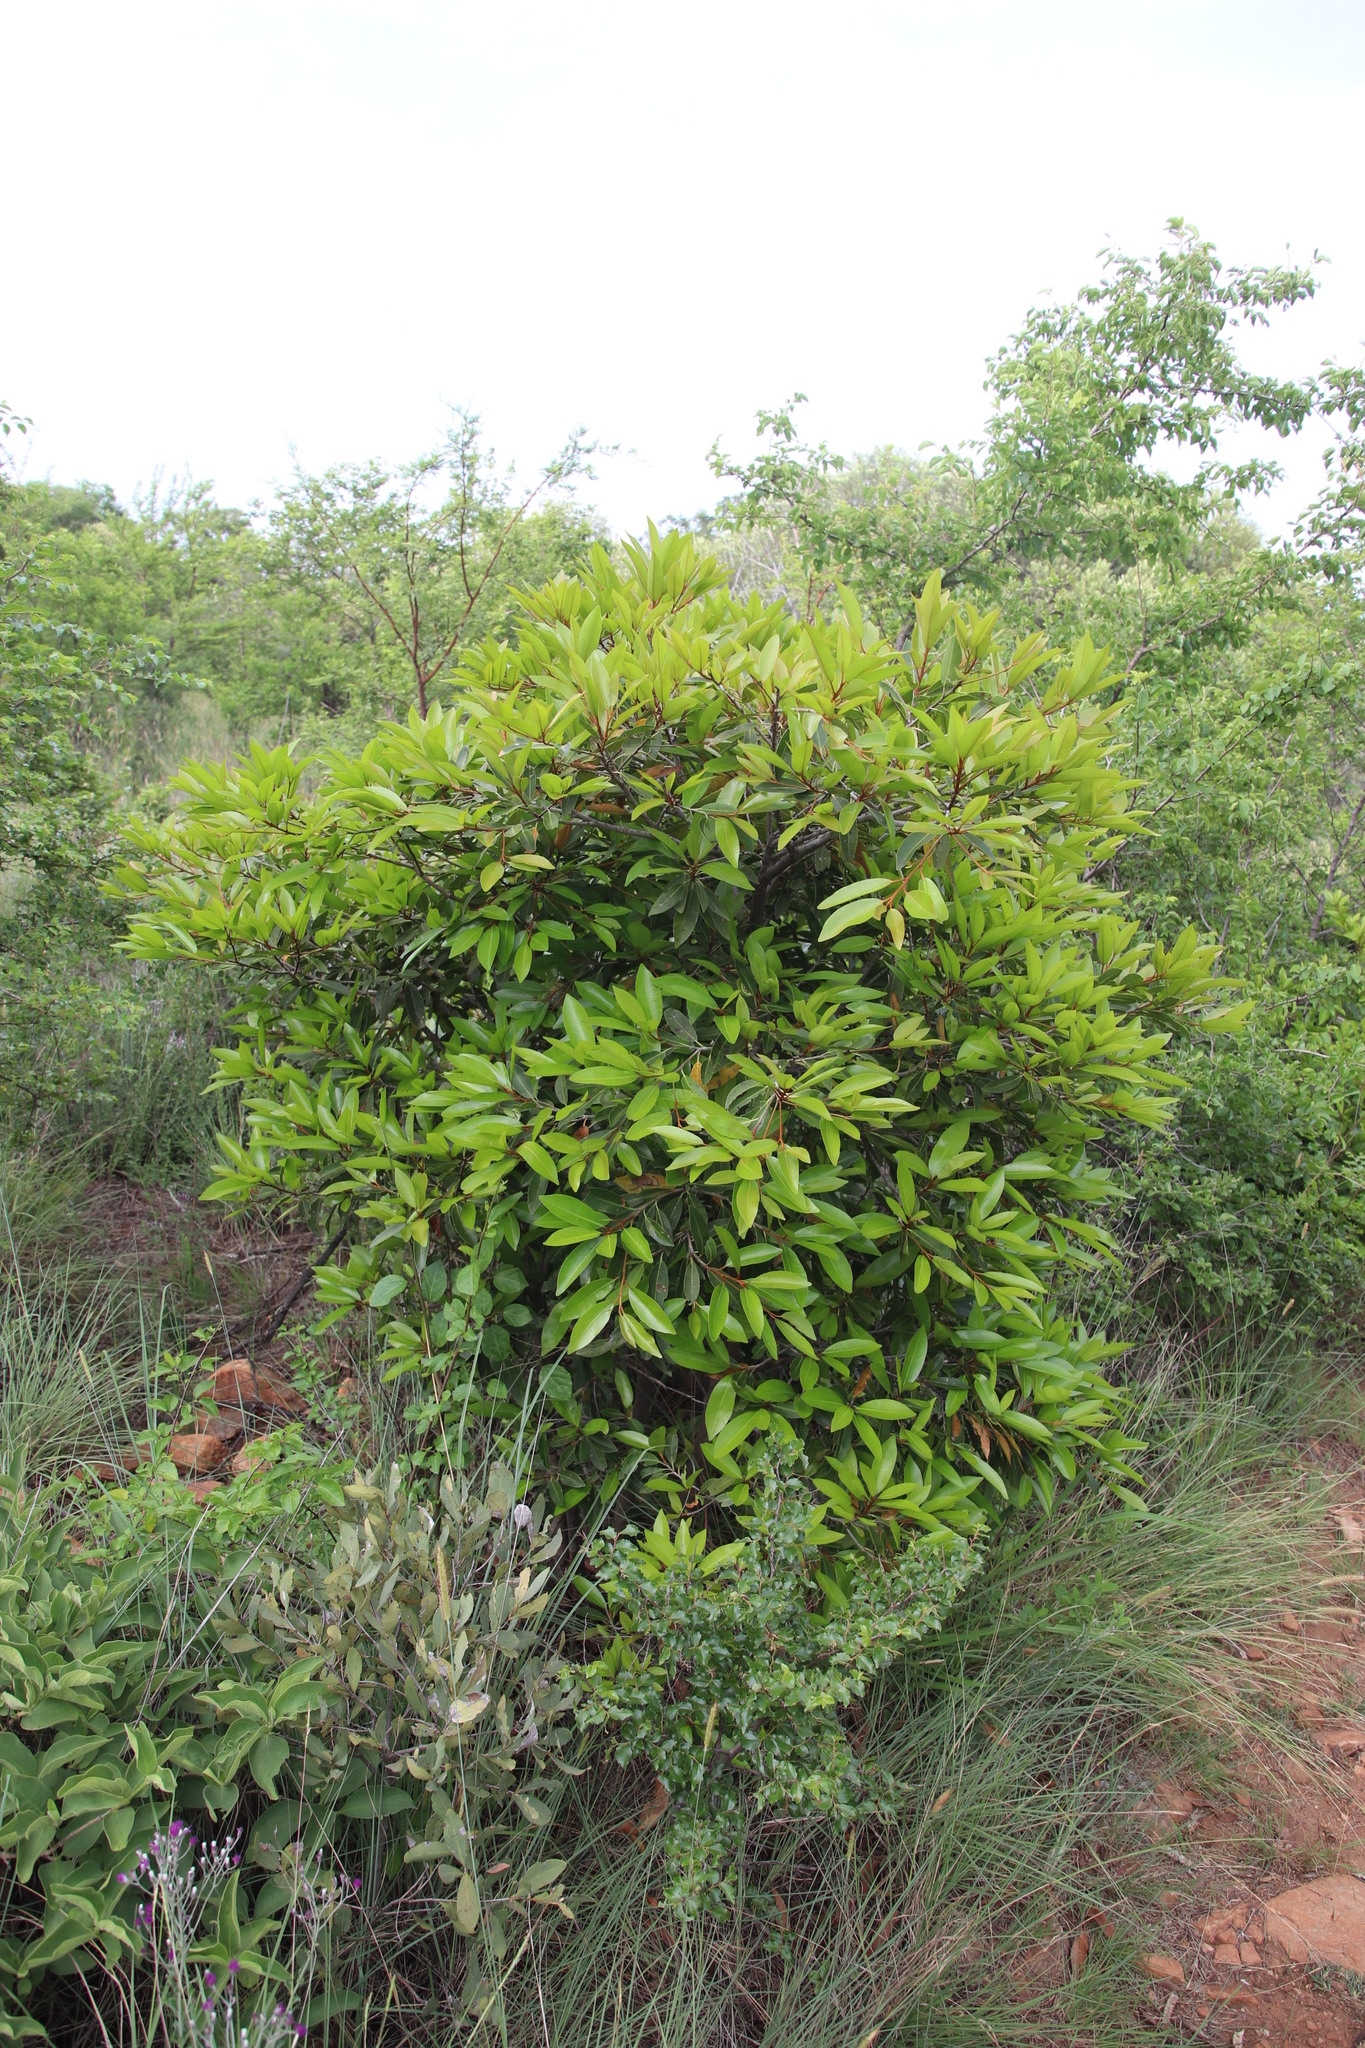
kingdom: Plantae
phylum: Tracheophyta
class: Magnoliopsida
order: Ericales
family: Sapotaceae
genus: Mimusops
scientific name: Mimusops zeyheri
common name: Transvaal red milkwood
